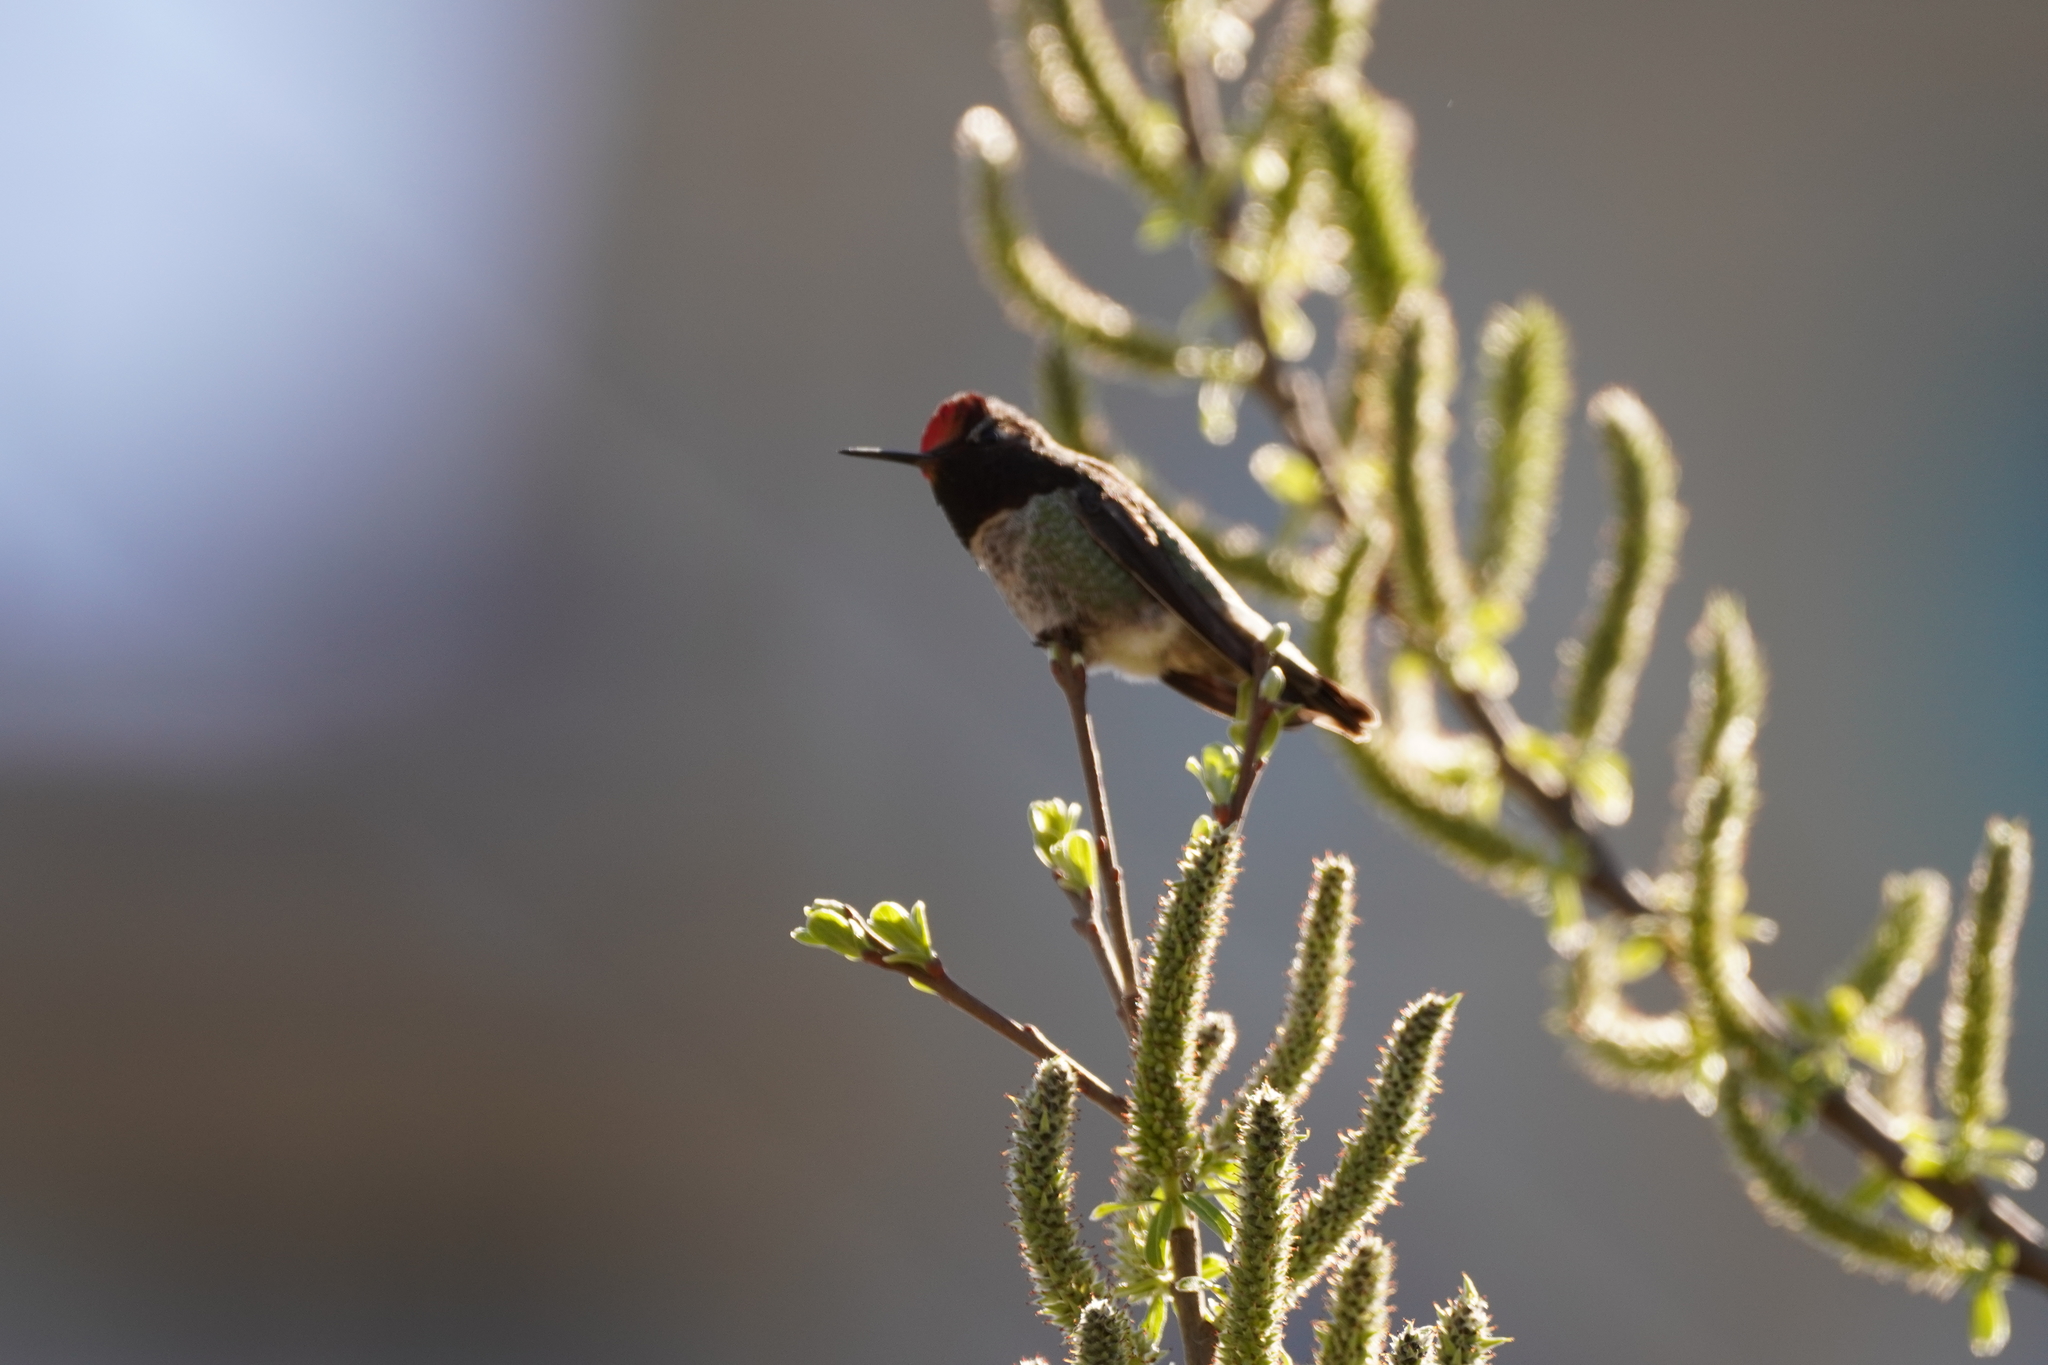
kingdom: Animalia
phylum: Chordata
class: Aves
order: Apodiformes
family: Trochilidae
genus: Calypte
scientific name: Calypte anna
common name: Anna's hummingbird
